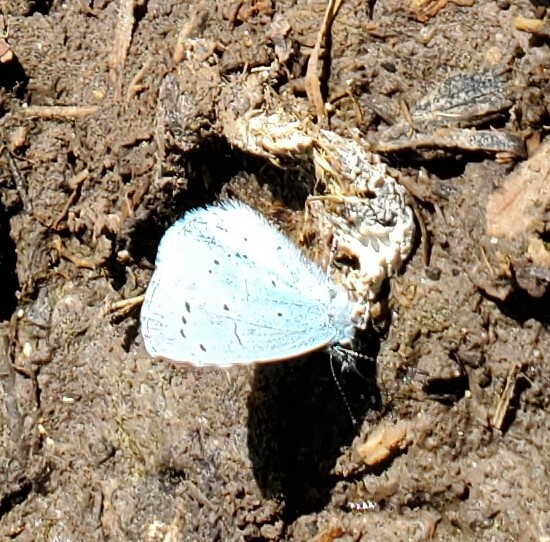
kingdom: Animalia
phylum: Arthropoda
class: Insecta
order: Lepidoptera
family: Lycaenidae
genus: Celastrina
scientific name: Celastrina argiolus
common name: Holly blue
